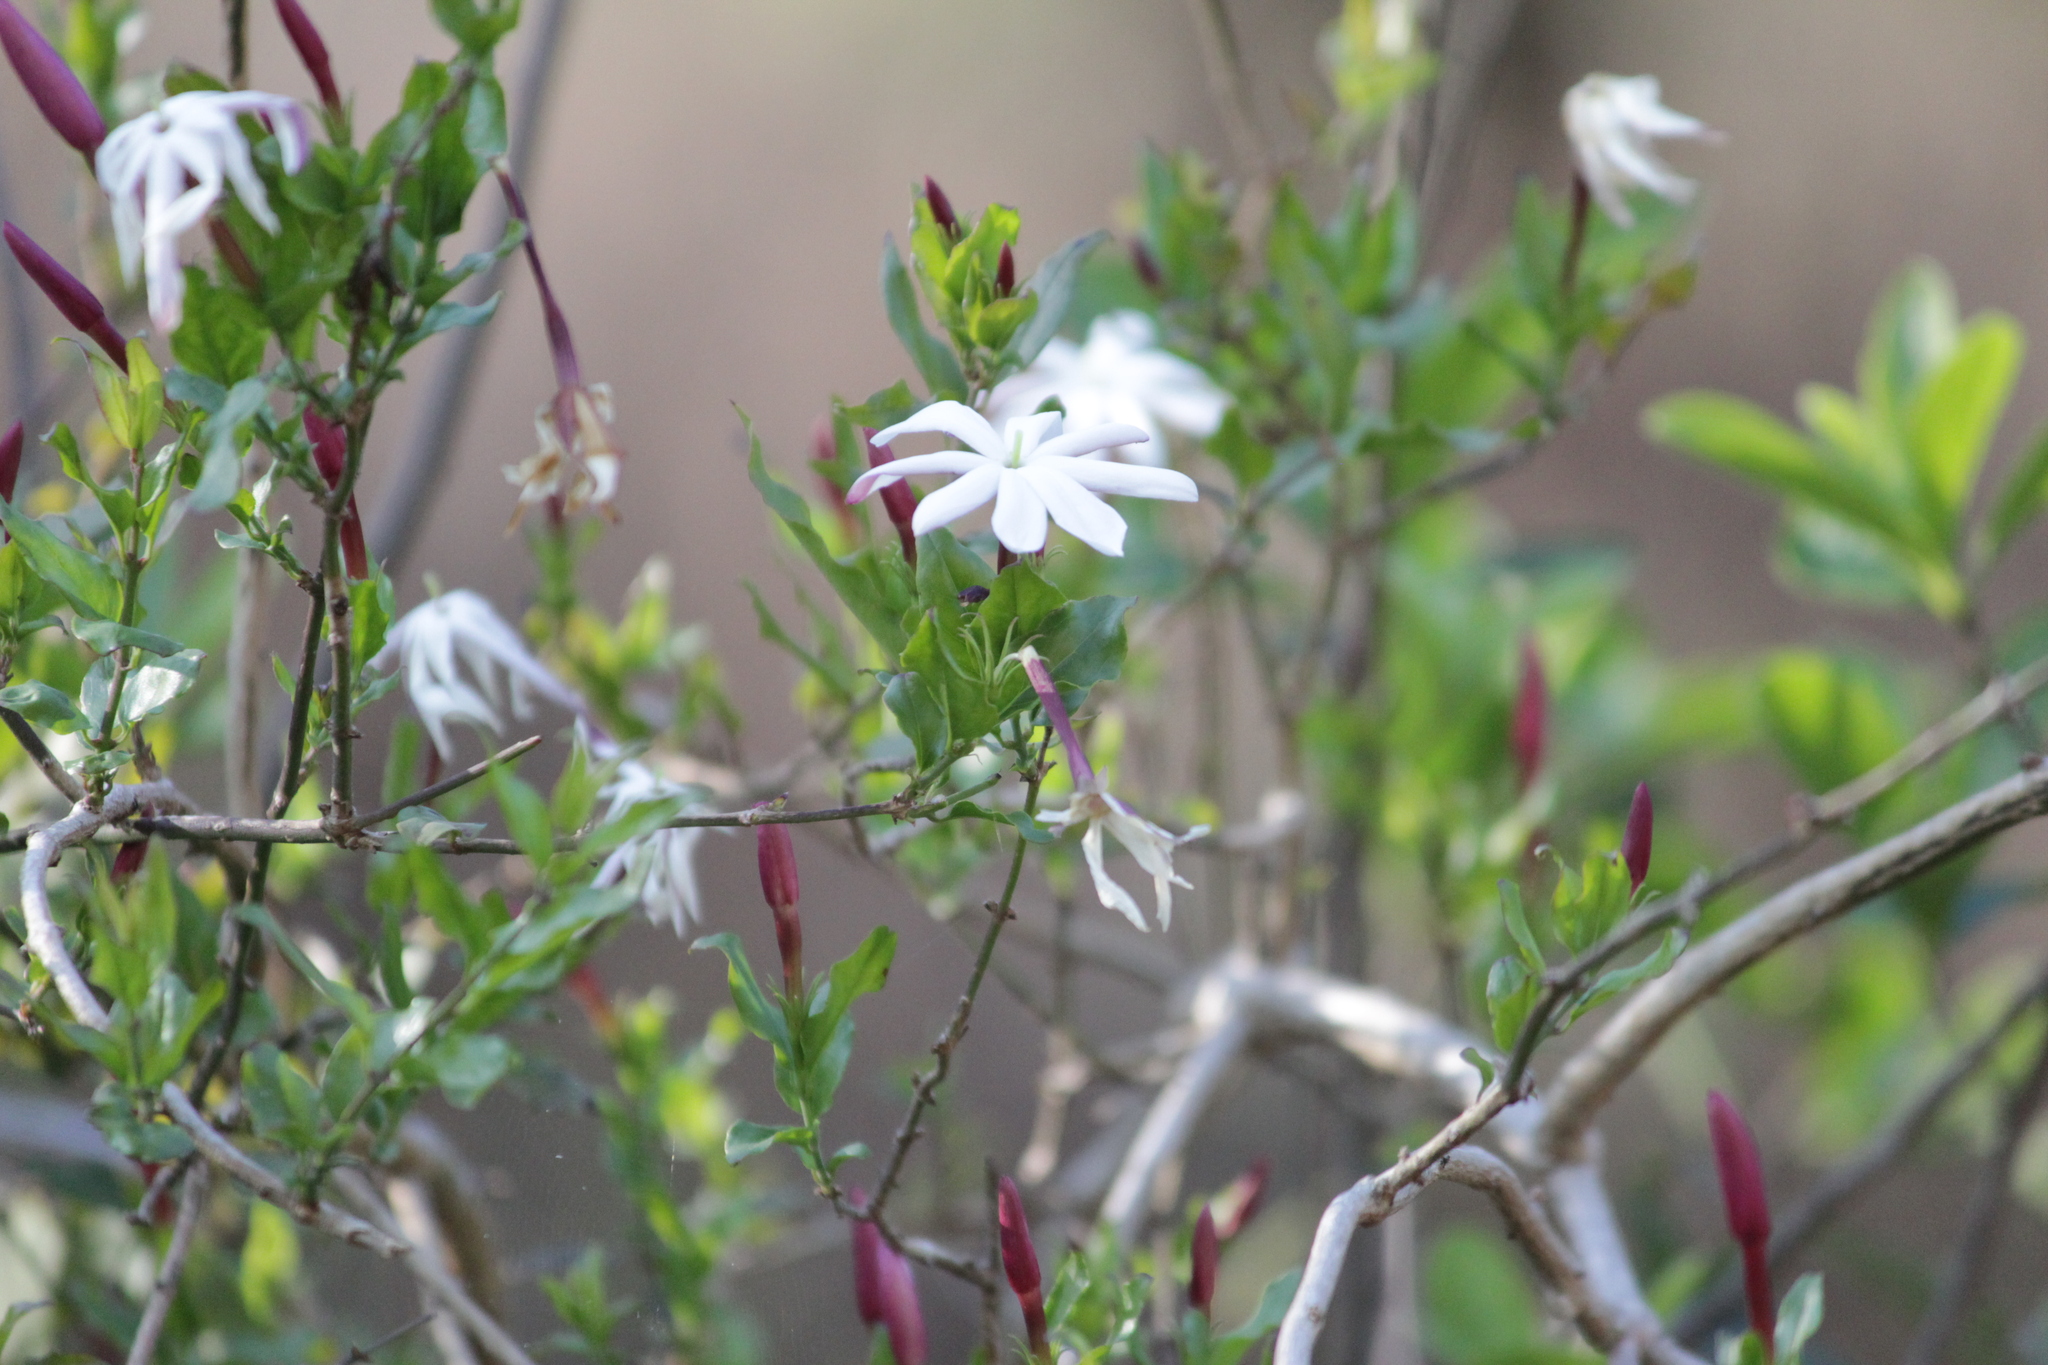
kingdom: Plantae
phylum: Tracheophyta
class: Magnoliopsida
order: Lamiales
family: Oleaceae
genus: Jasminum
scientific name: Jasminum multipartitum
